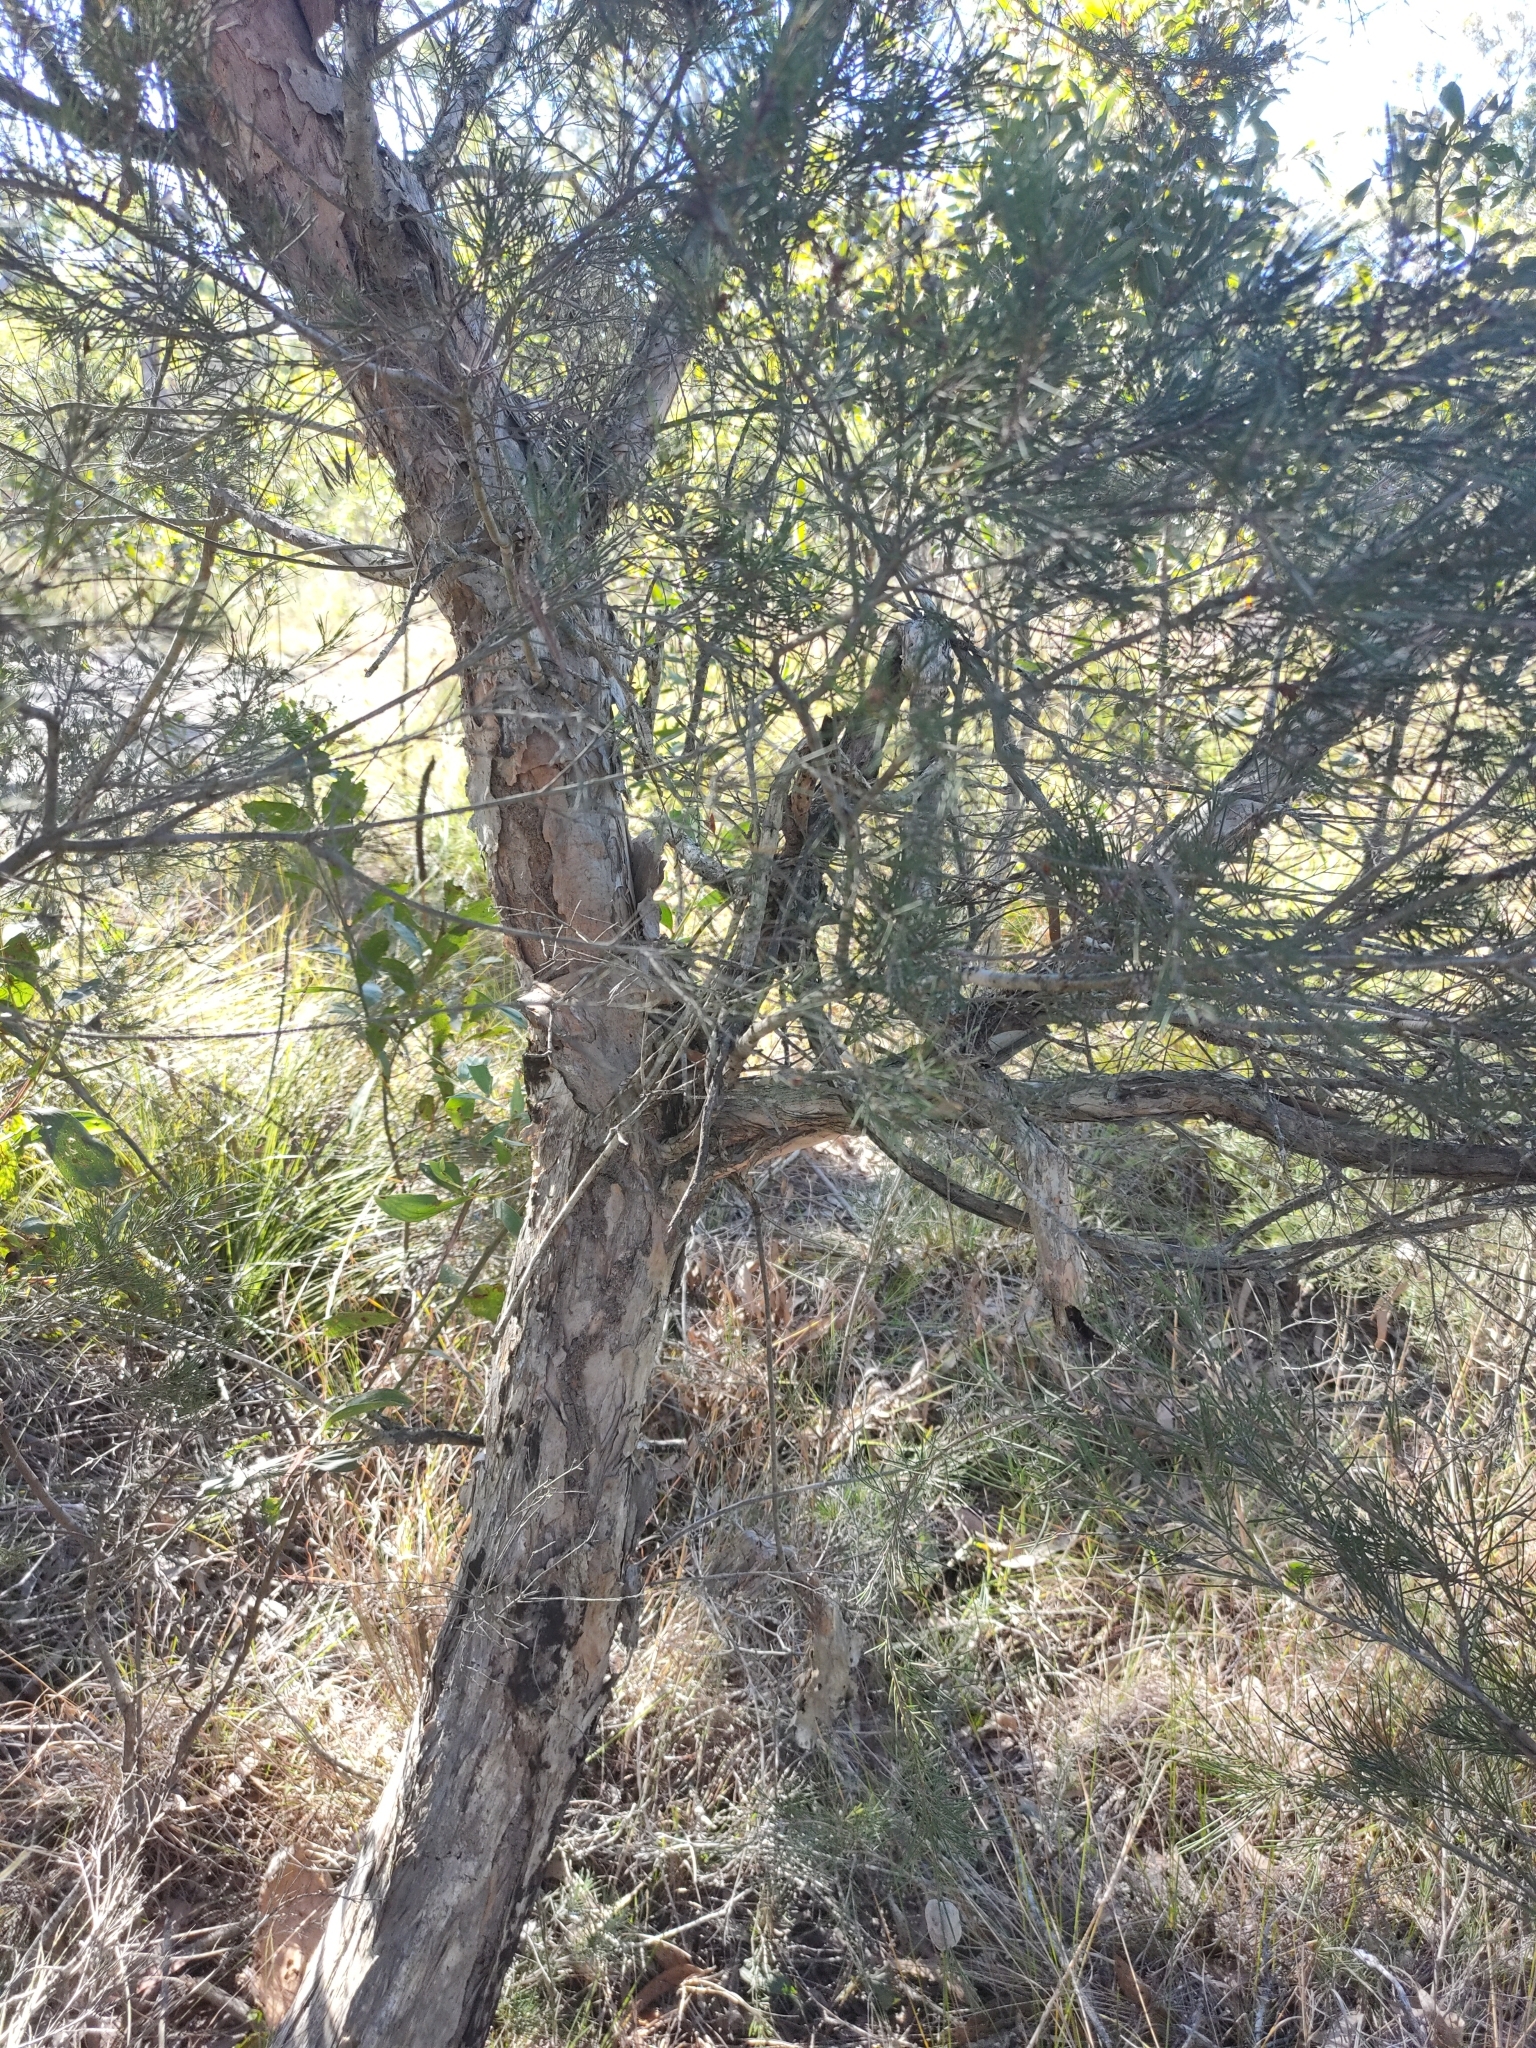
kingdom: Plantae
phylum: Tracheophyta
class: Magnoliopsida
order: Myrtales
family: Myrtaceae
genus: Melaleuca
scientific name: Melaleuca nodosa
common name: Prickly-leaf paperbark
